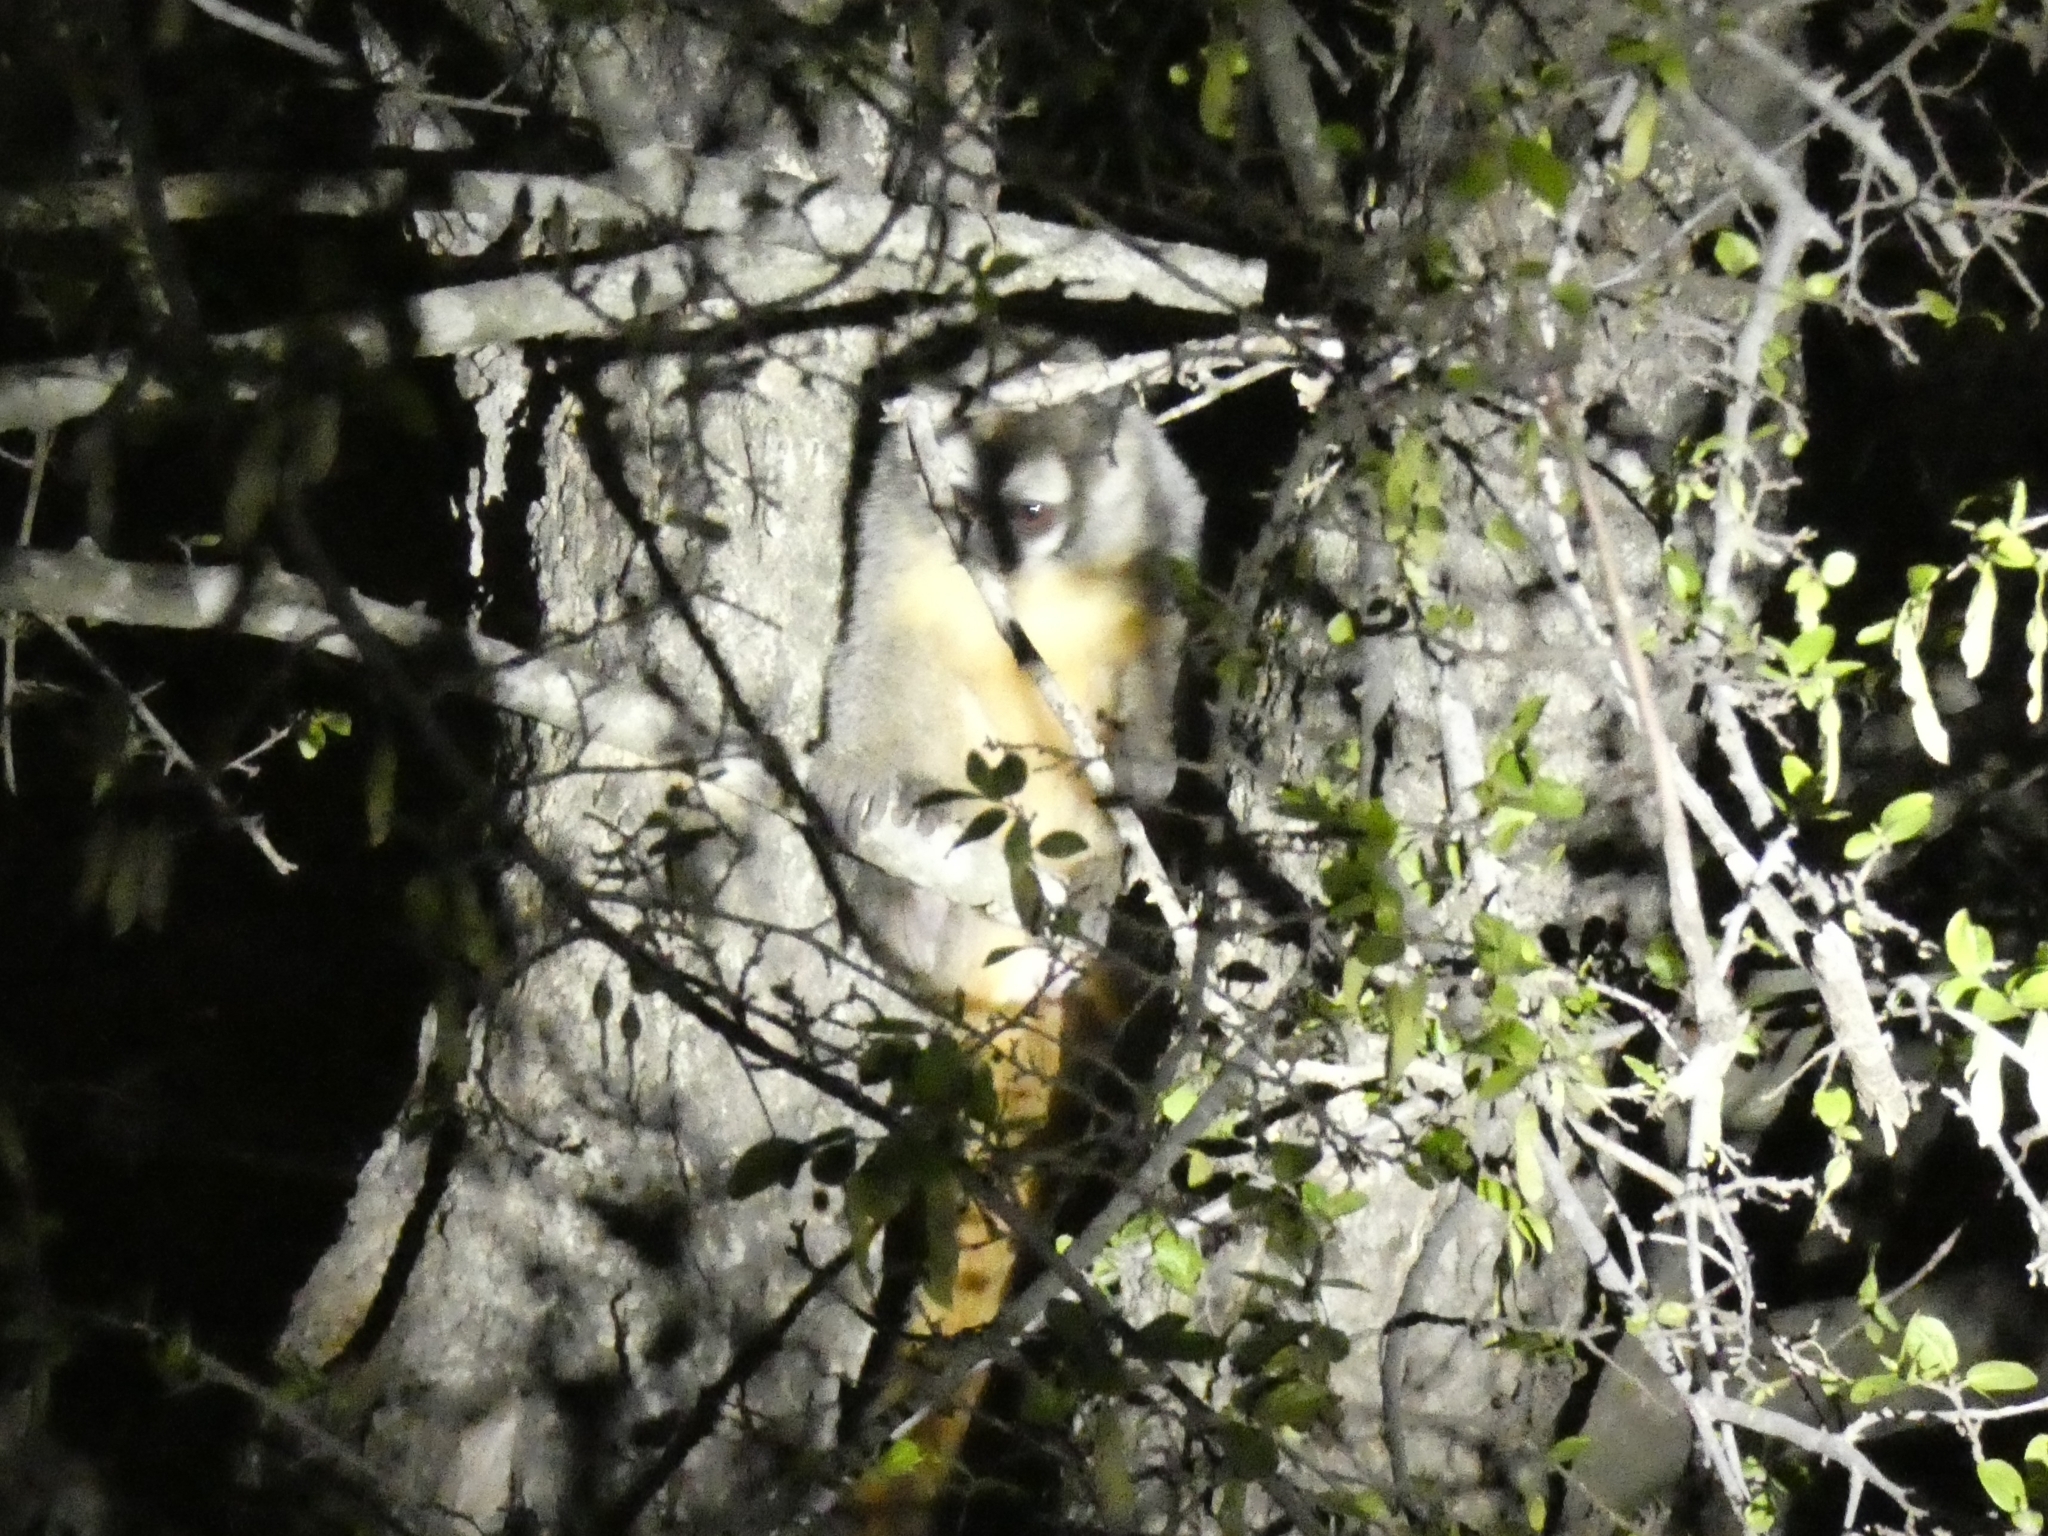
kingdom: Animalia
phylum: Chordata
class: Mammalia
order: Primates
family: Aotidae
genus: Aotus
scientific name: Aotus azarae
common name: Azara's night monkey
